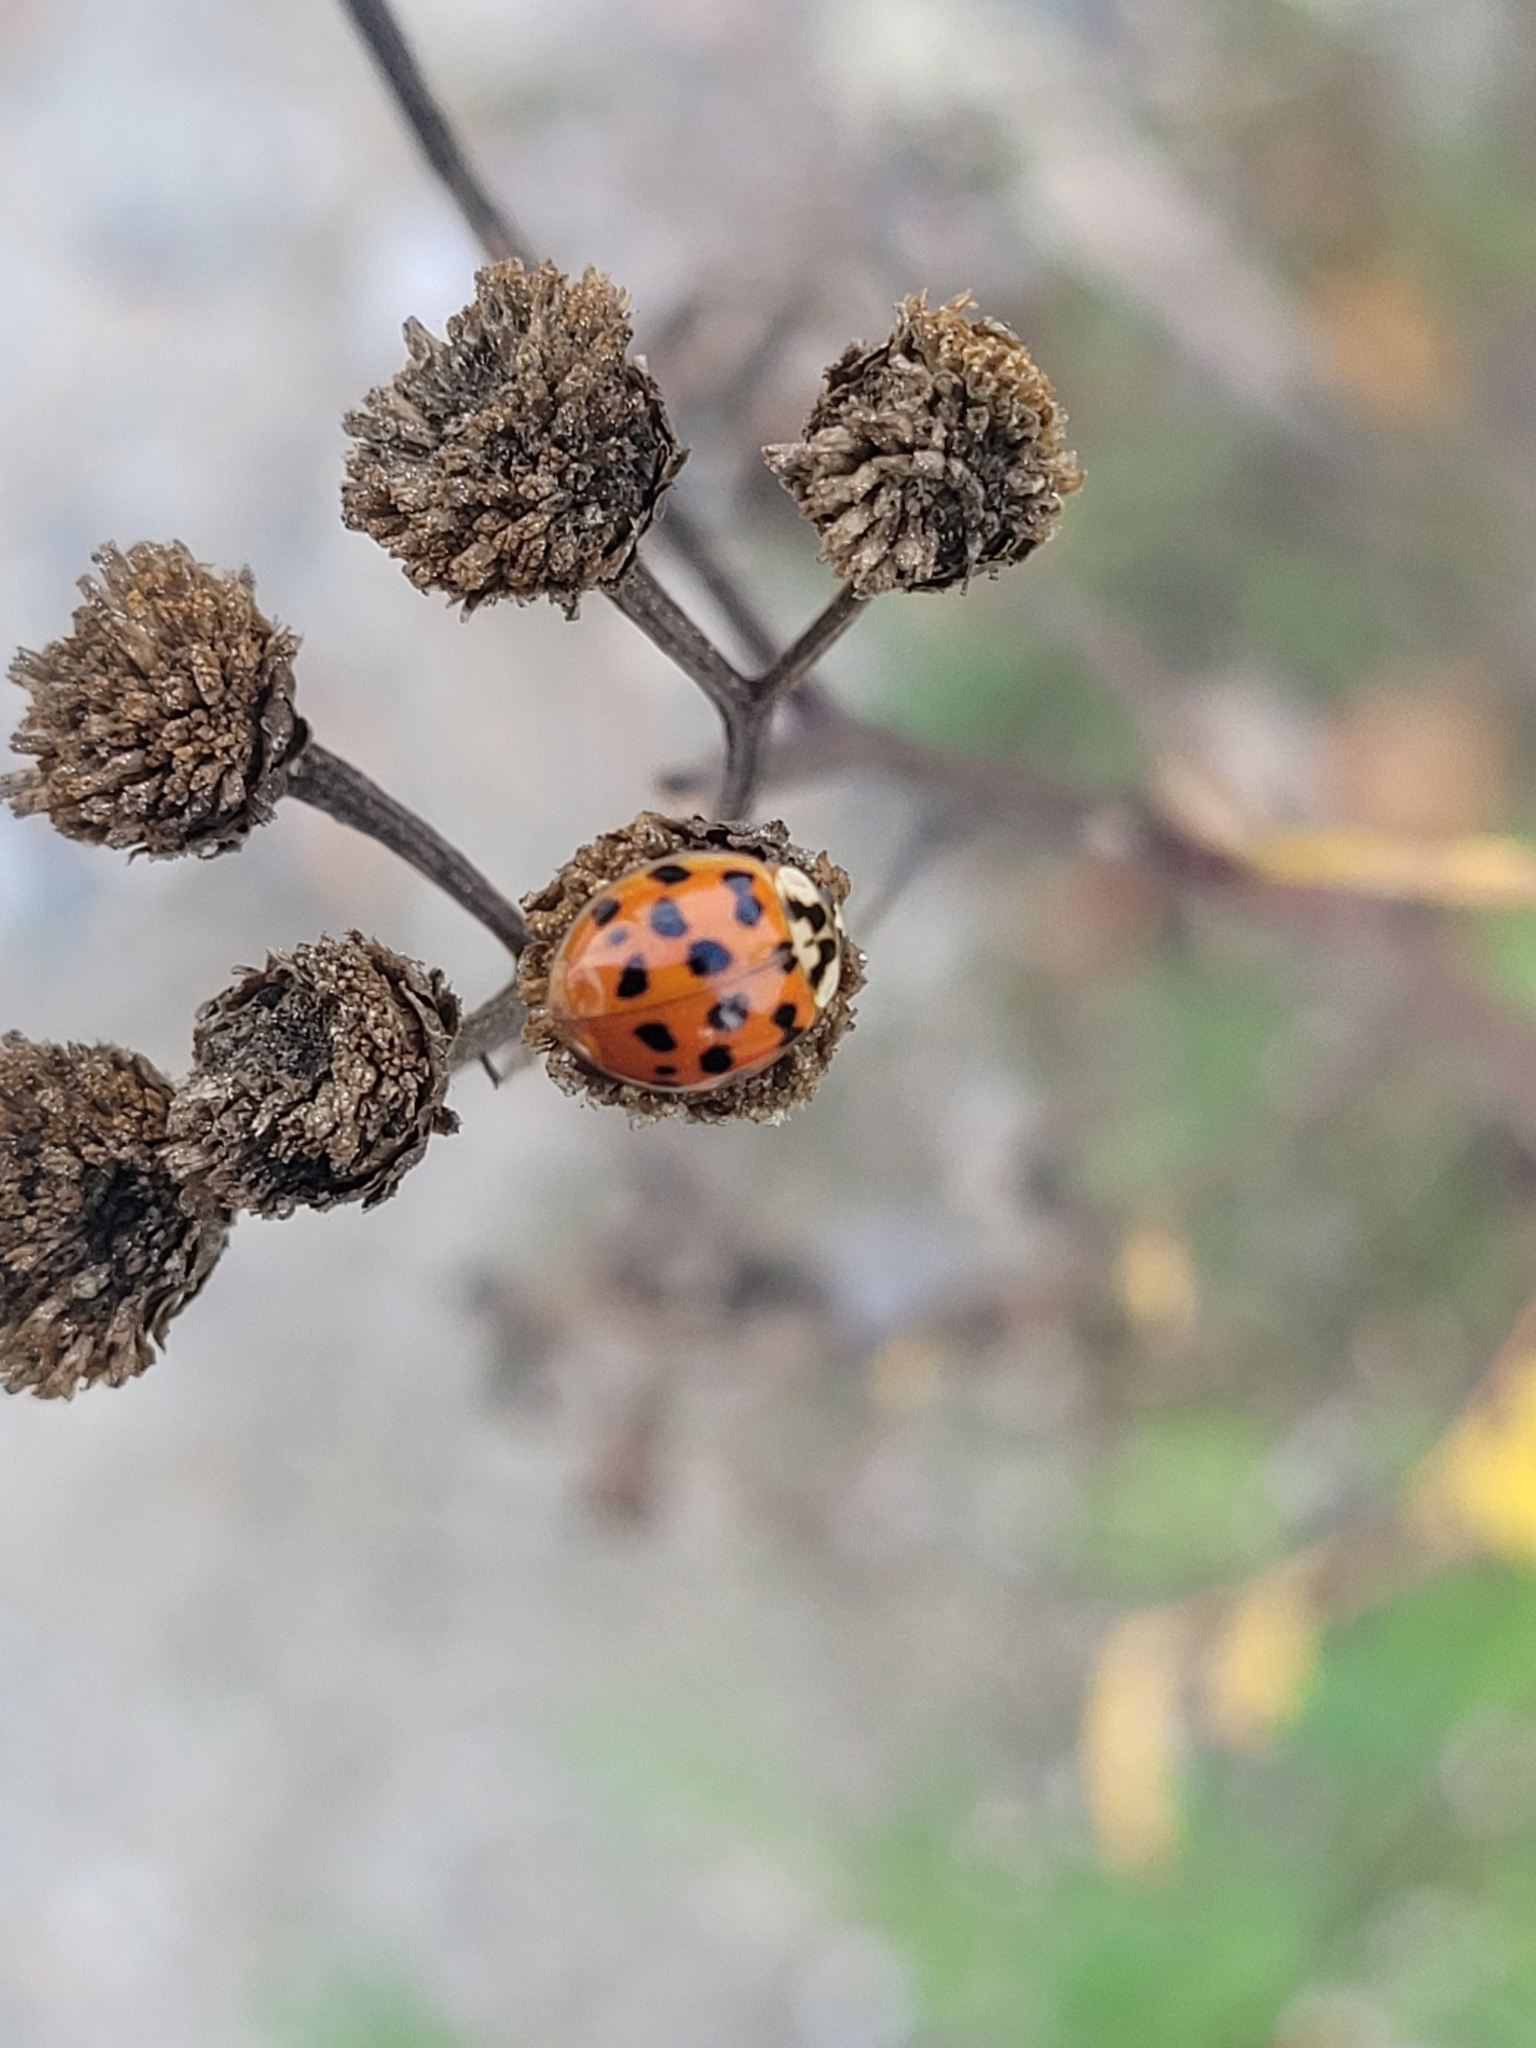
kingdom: Animalia
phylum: Arthropoda
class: Insecta
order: Coleoptera
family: Coccinellidae
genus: Harmonia
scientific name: Harmonia axyridis
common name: Harlequin ladybird
